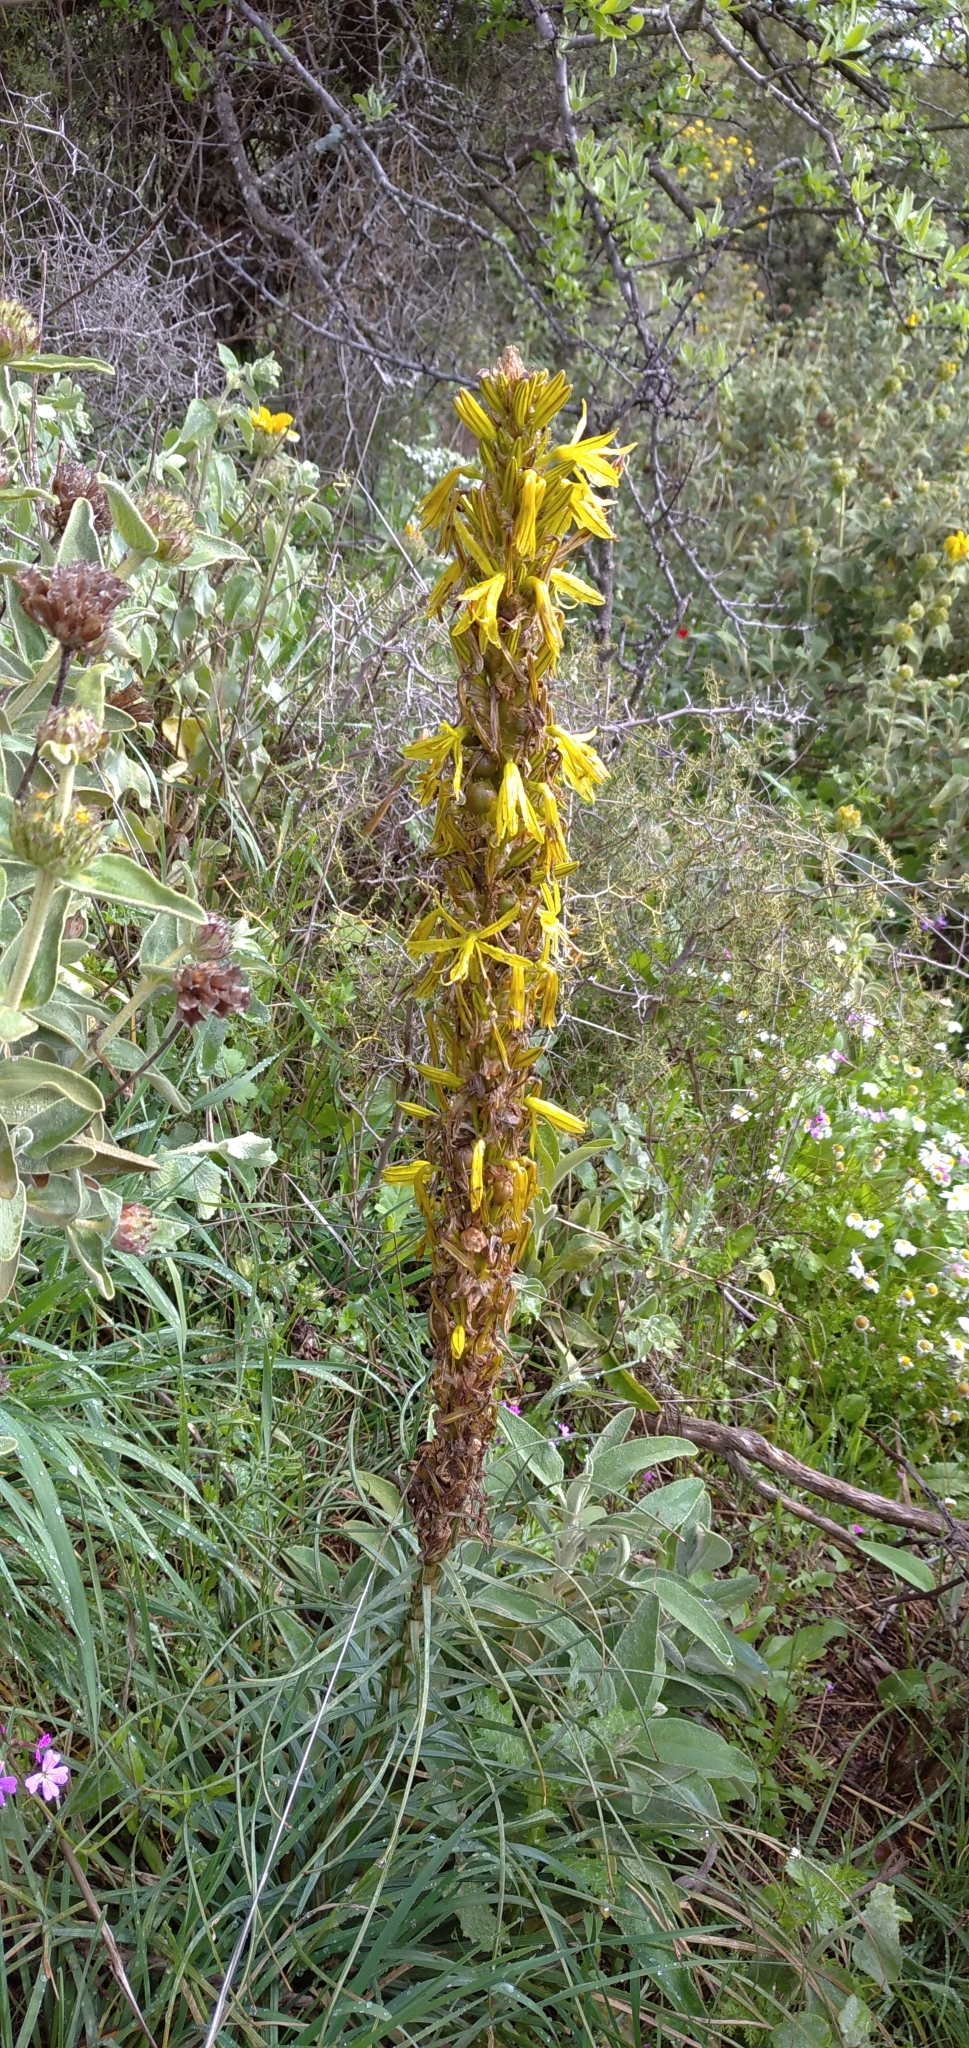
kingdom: Plantae
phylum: Tracheophyta
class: Liliopsida
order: Asparagales
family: Asphodelaceae
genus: Asphodeline
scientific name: Asphodeline lutea
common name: Yellow asphodel
